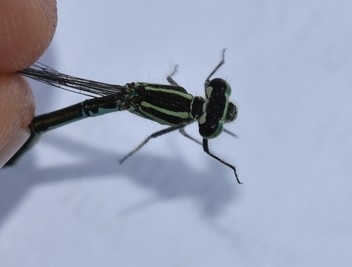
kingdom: Animalia
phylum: Arthropoda
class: Insecta
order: Odonata
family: Coenagrionidae
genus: Coenagrion
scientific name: Coenagrion puella
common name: Azure damselfly
